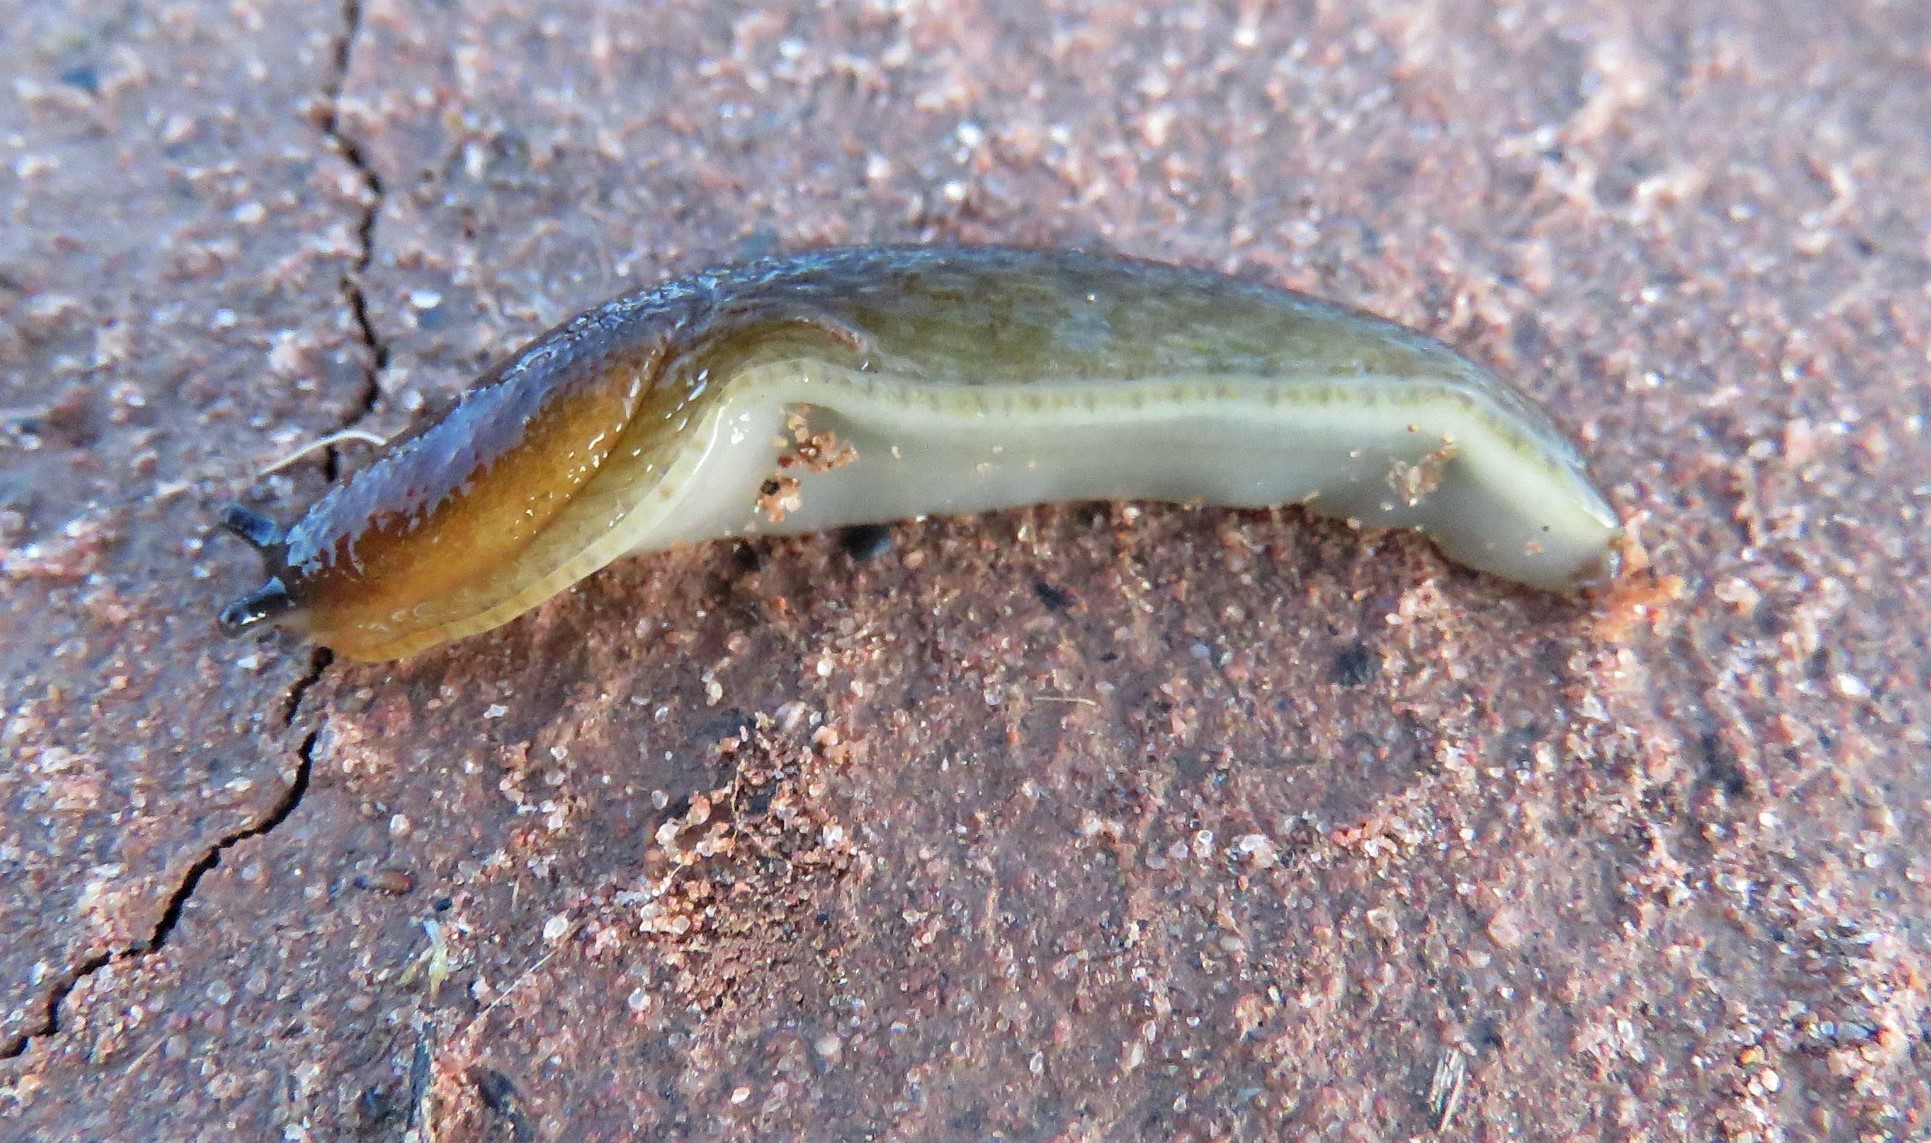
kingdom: Animalia
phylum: Mollusca
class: Gastropoda
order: Stylommatophora
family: Arionidae
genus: Arion
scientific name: Arion fuscus
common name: Northern dusky slug
